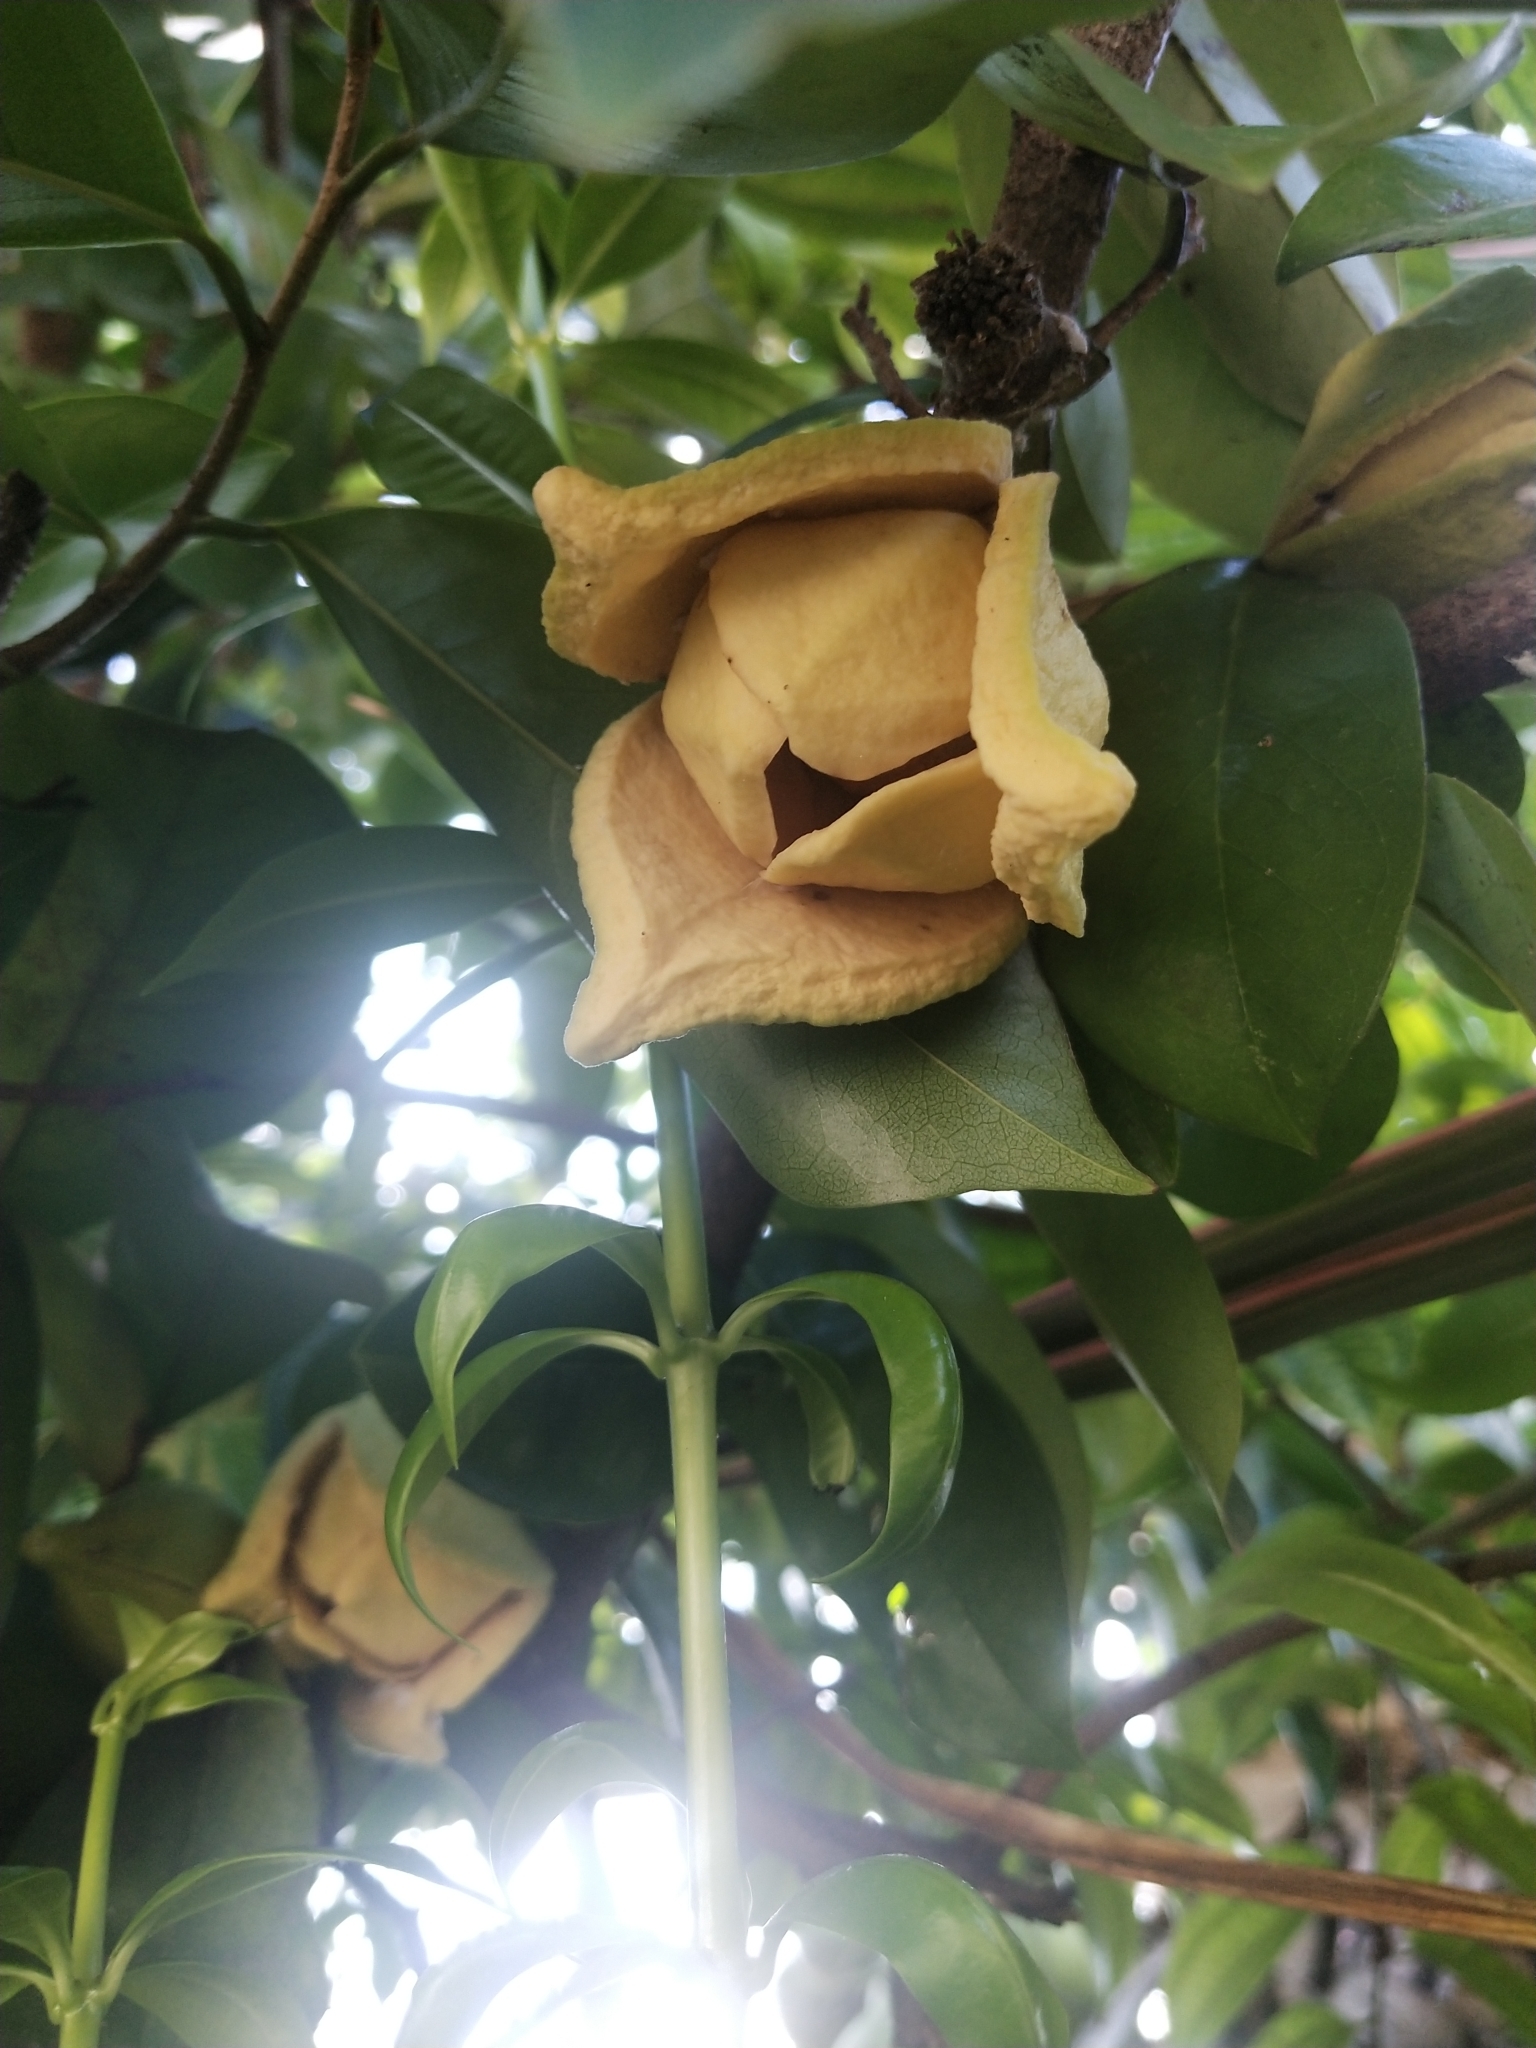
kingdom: Plantae
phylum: Tracheophyta
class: Magnoliopsida
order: Magnoliales
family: Annonaceae
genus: Annona
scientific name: Annona muricata
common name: Soursop
